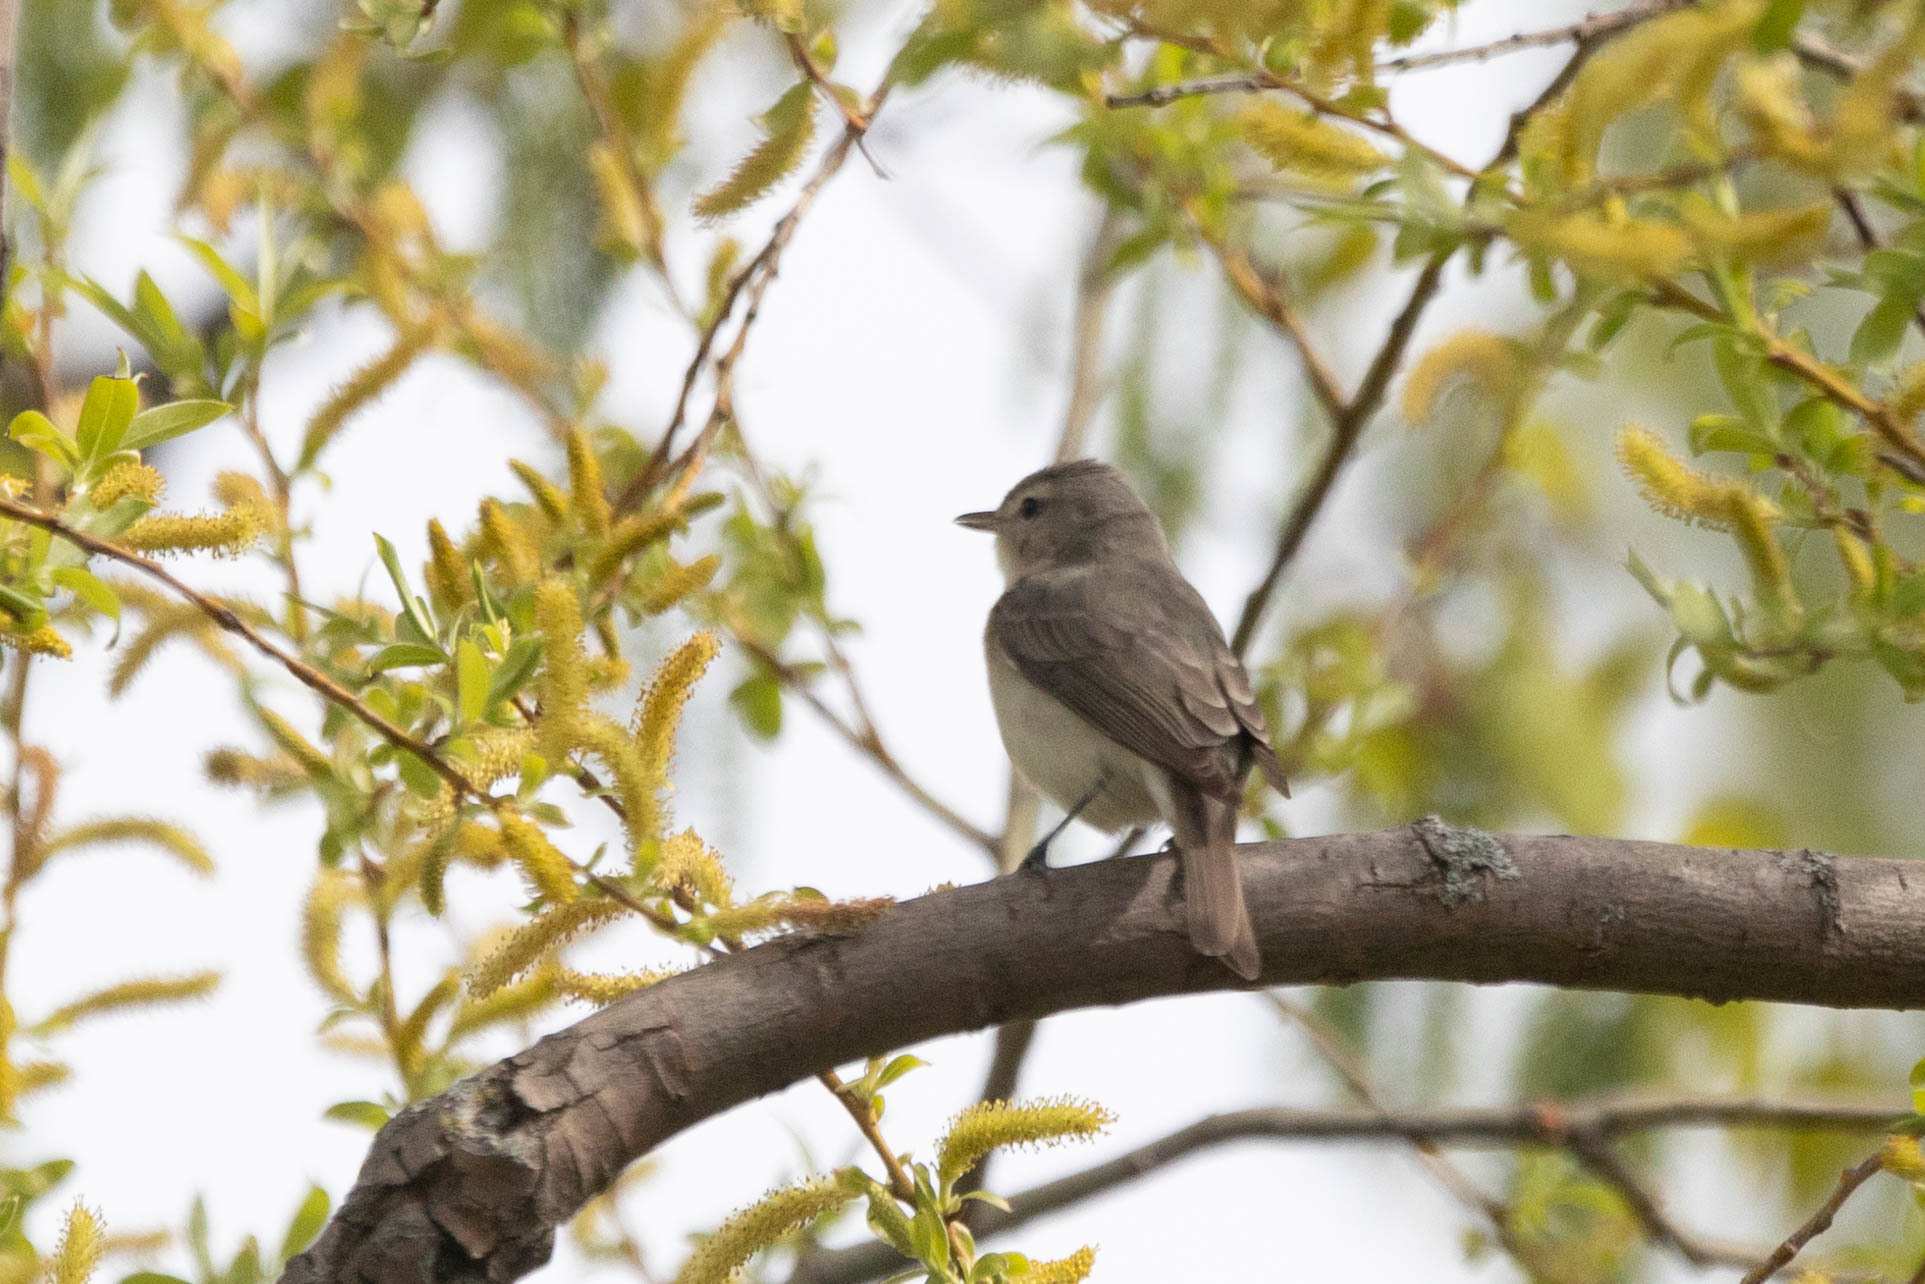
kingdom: Animalia
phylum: Chordata
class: Aves
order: Passeriformes
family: Vireonidae
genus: Vireo
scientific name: Vireo gilvus
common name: Warbling vireo
